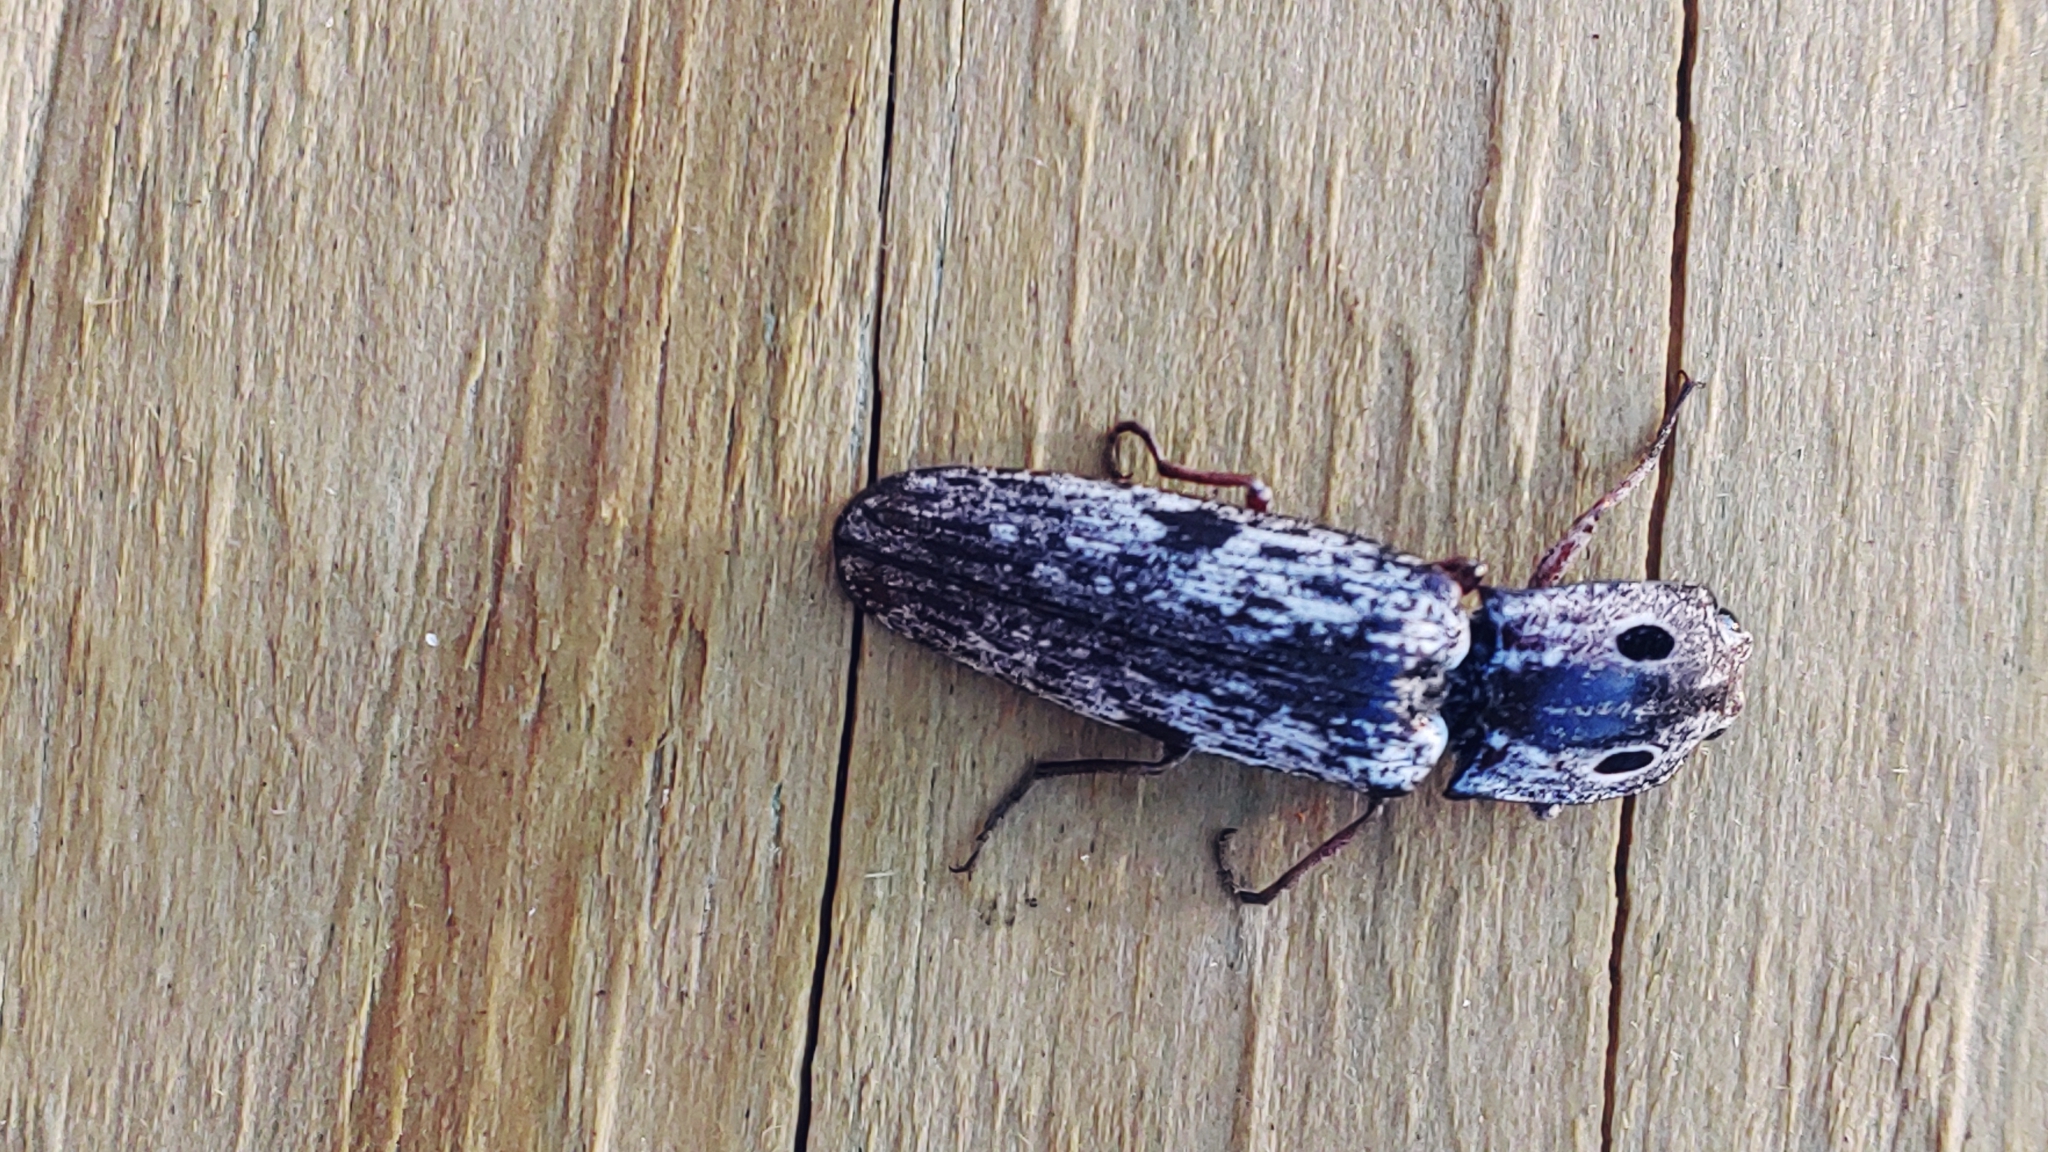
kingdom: Animalia
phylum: Arthropoda
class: Insecta
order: Coleoptera
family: Elateridae
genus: Alaus
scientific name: Alaus myops
